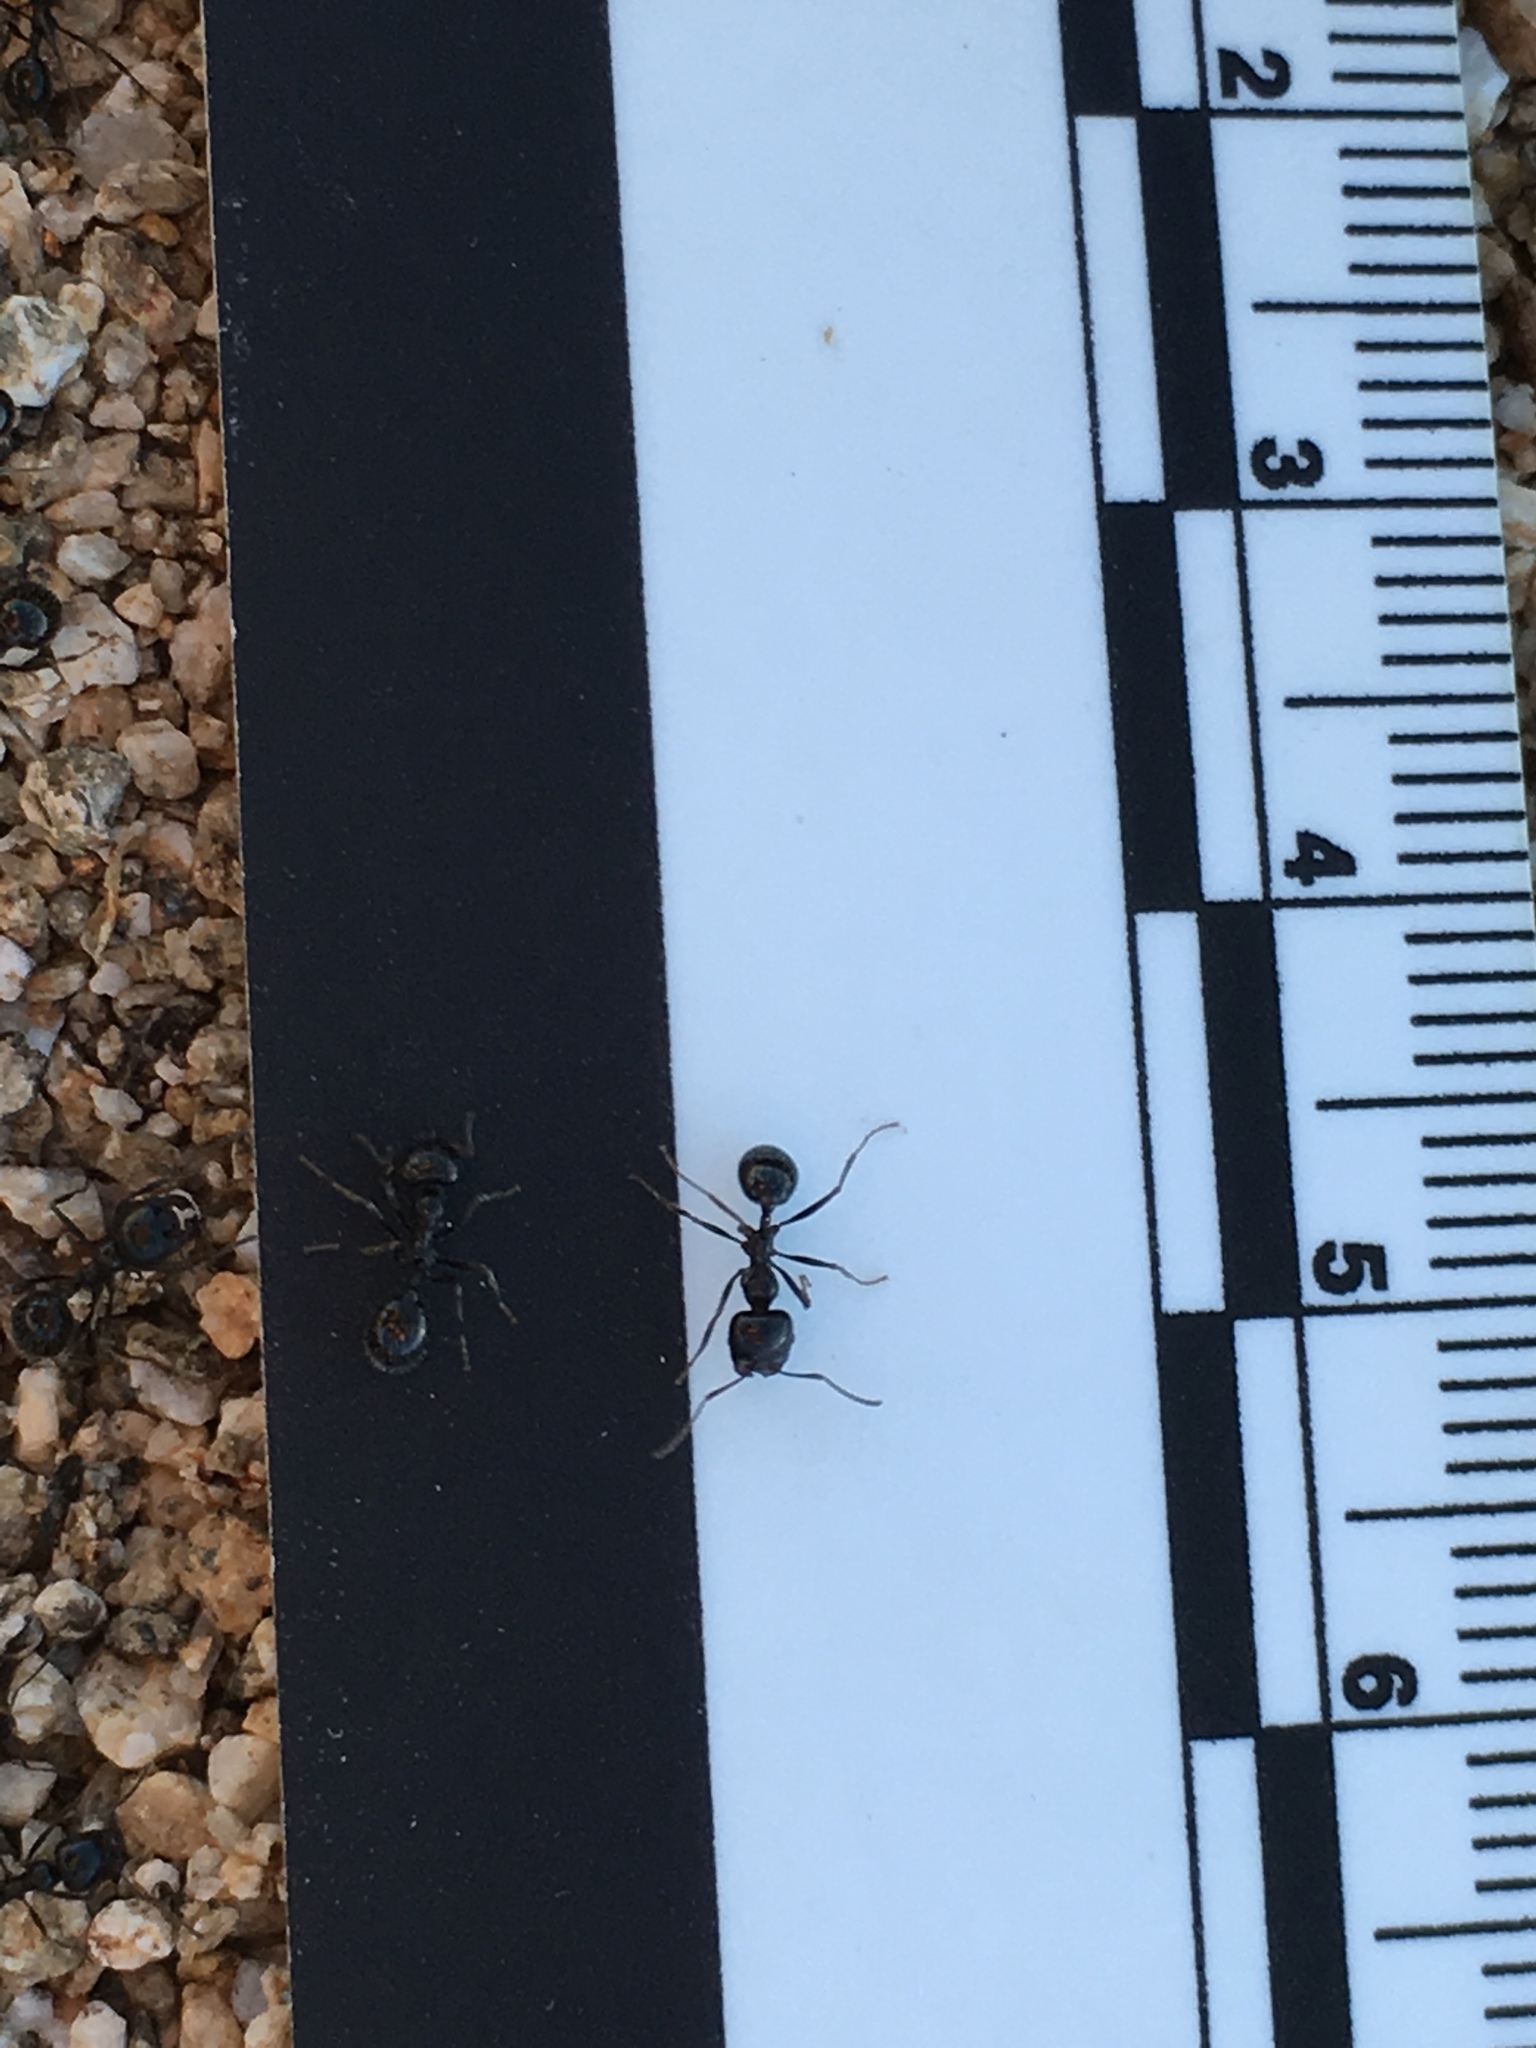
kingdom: Animalia
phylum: Arthropoda
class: Insecta
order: Hymenoptera
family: Formicidae
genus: Messor
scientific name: Messor pergandei
